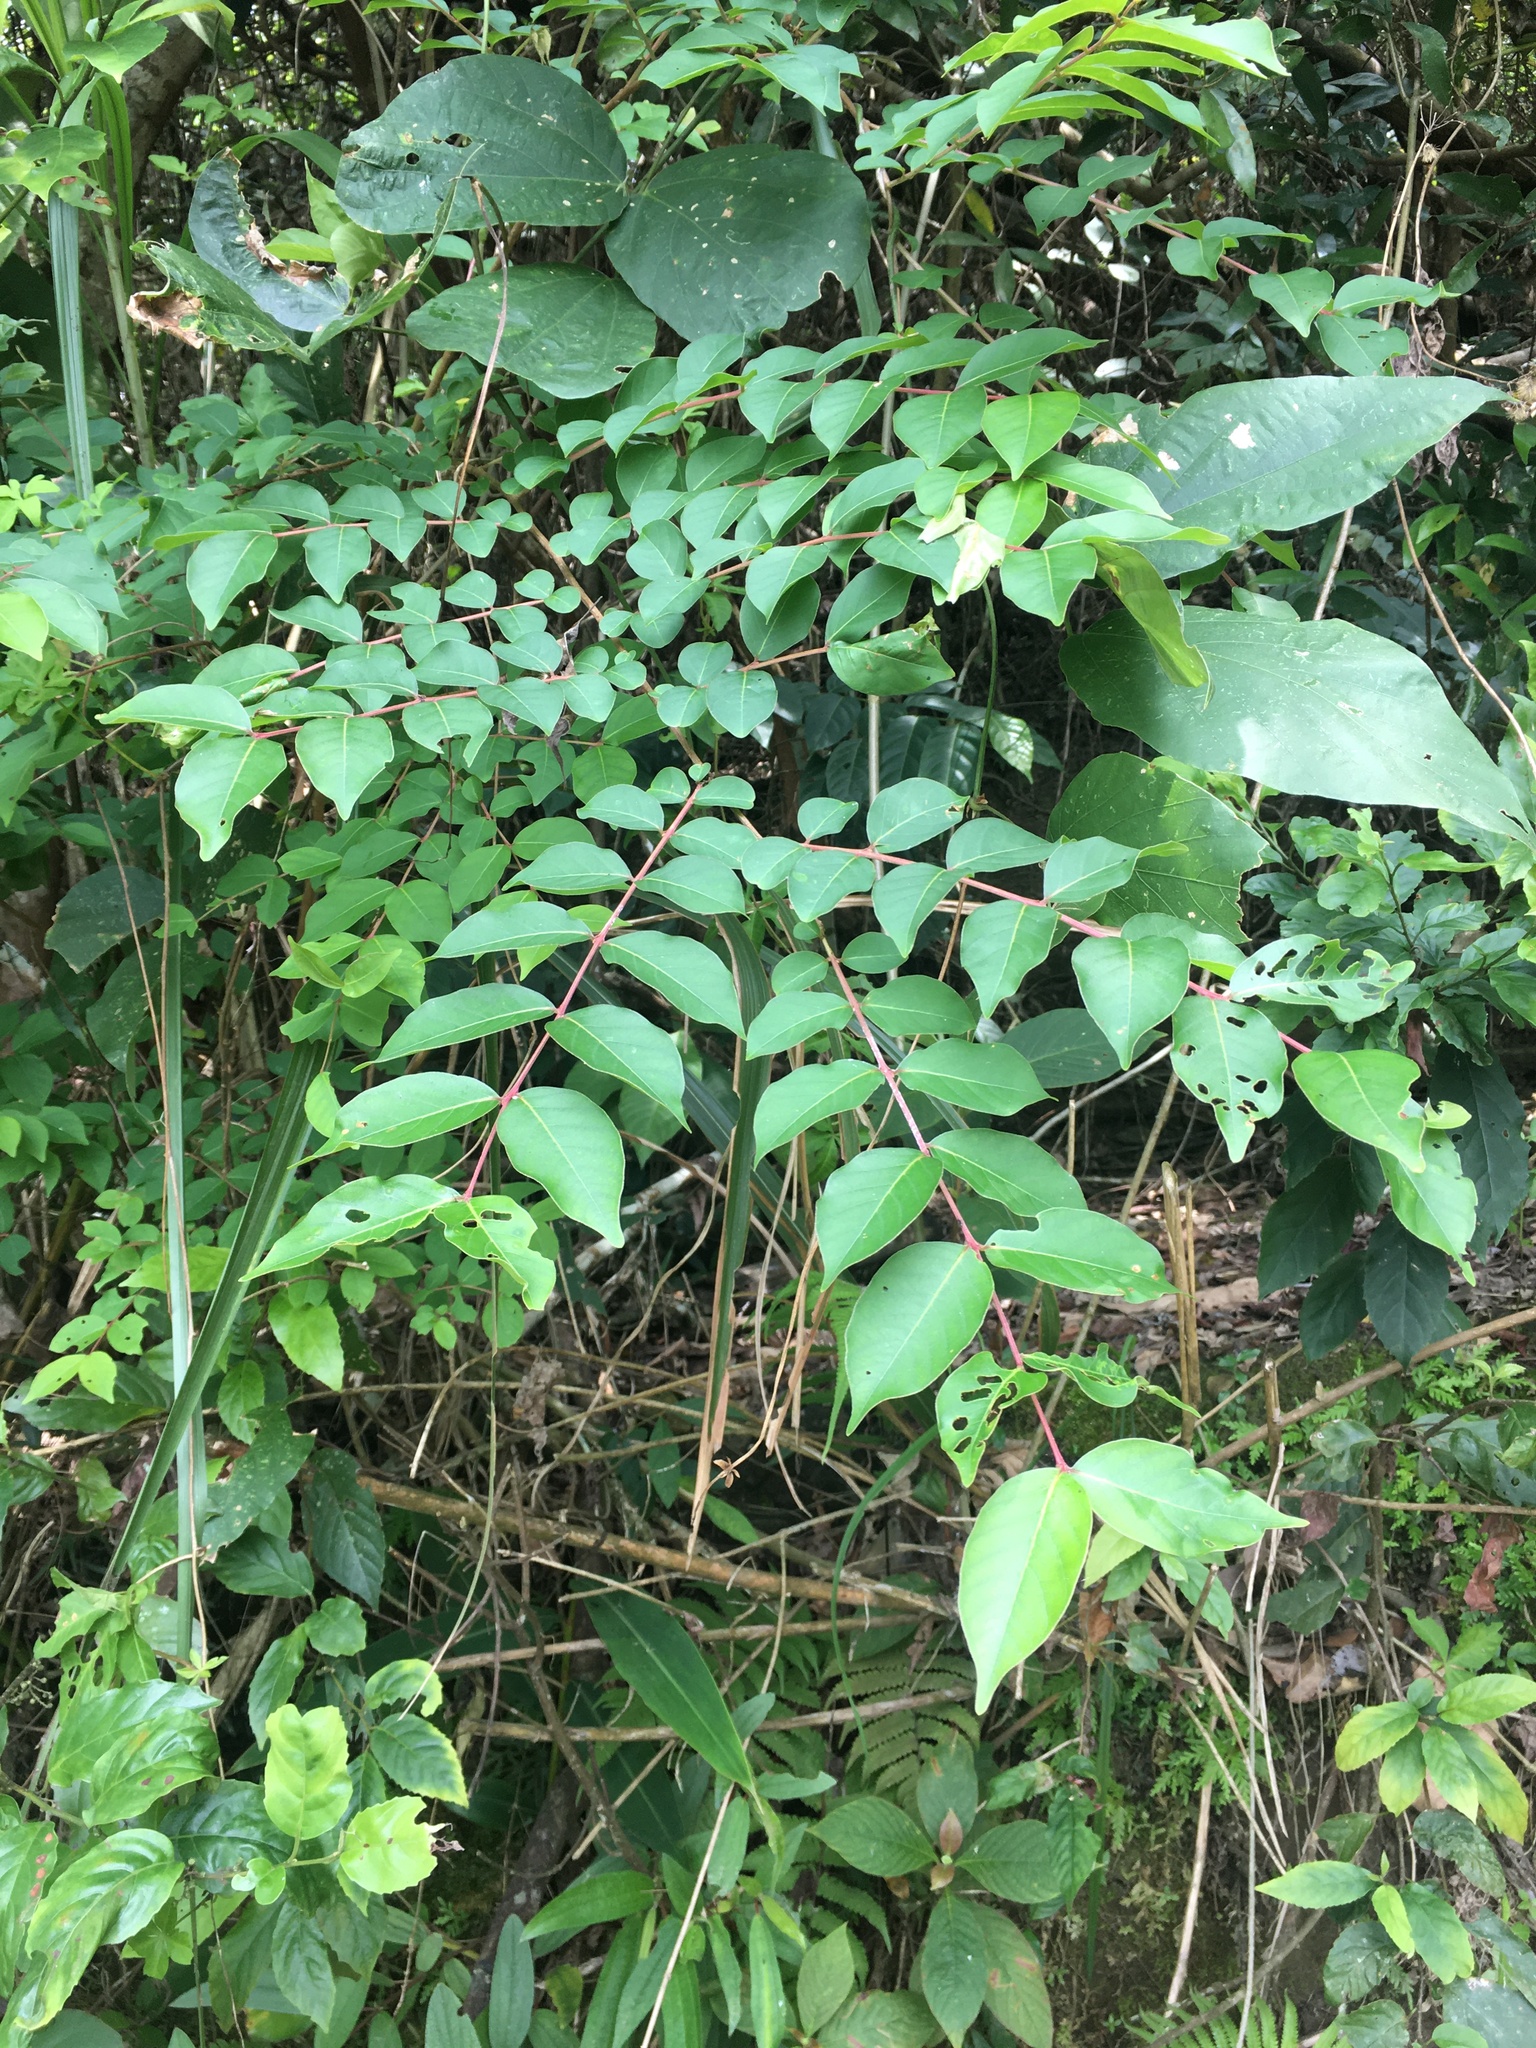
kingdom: Plantae
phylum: Tracheophyta
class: Magnoliopsida
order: Myrtales
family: Lythraceae
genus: Lagerstroemia
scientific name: Lagerstroemia subcostata
